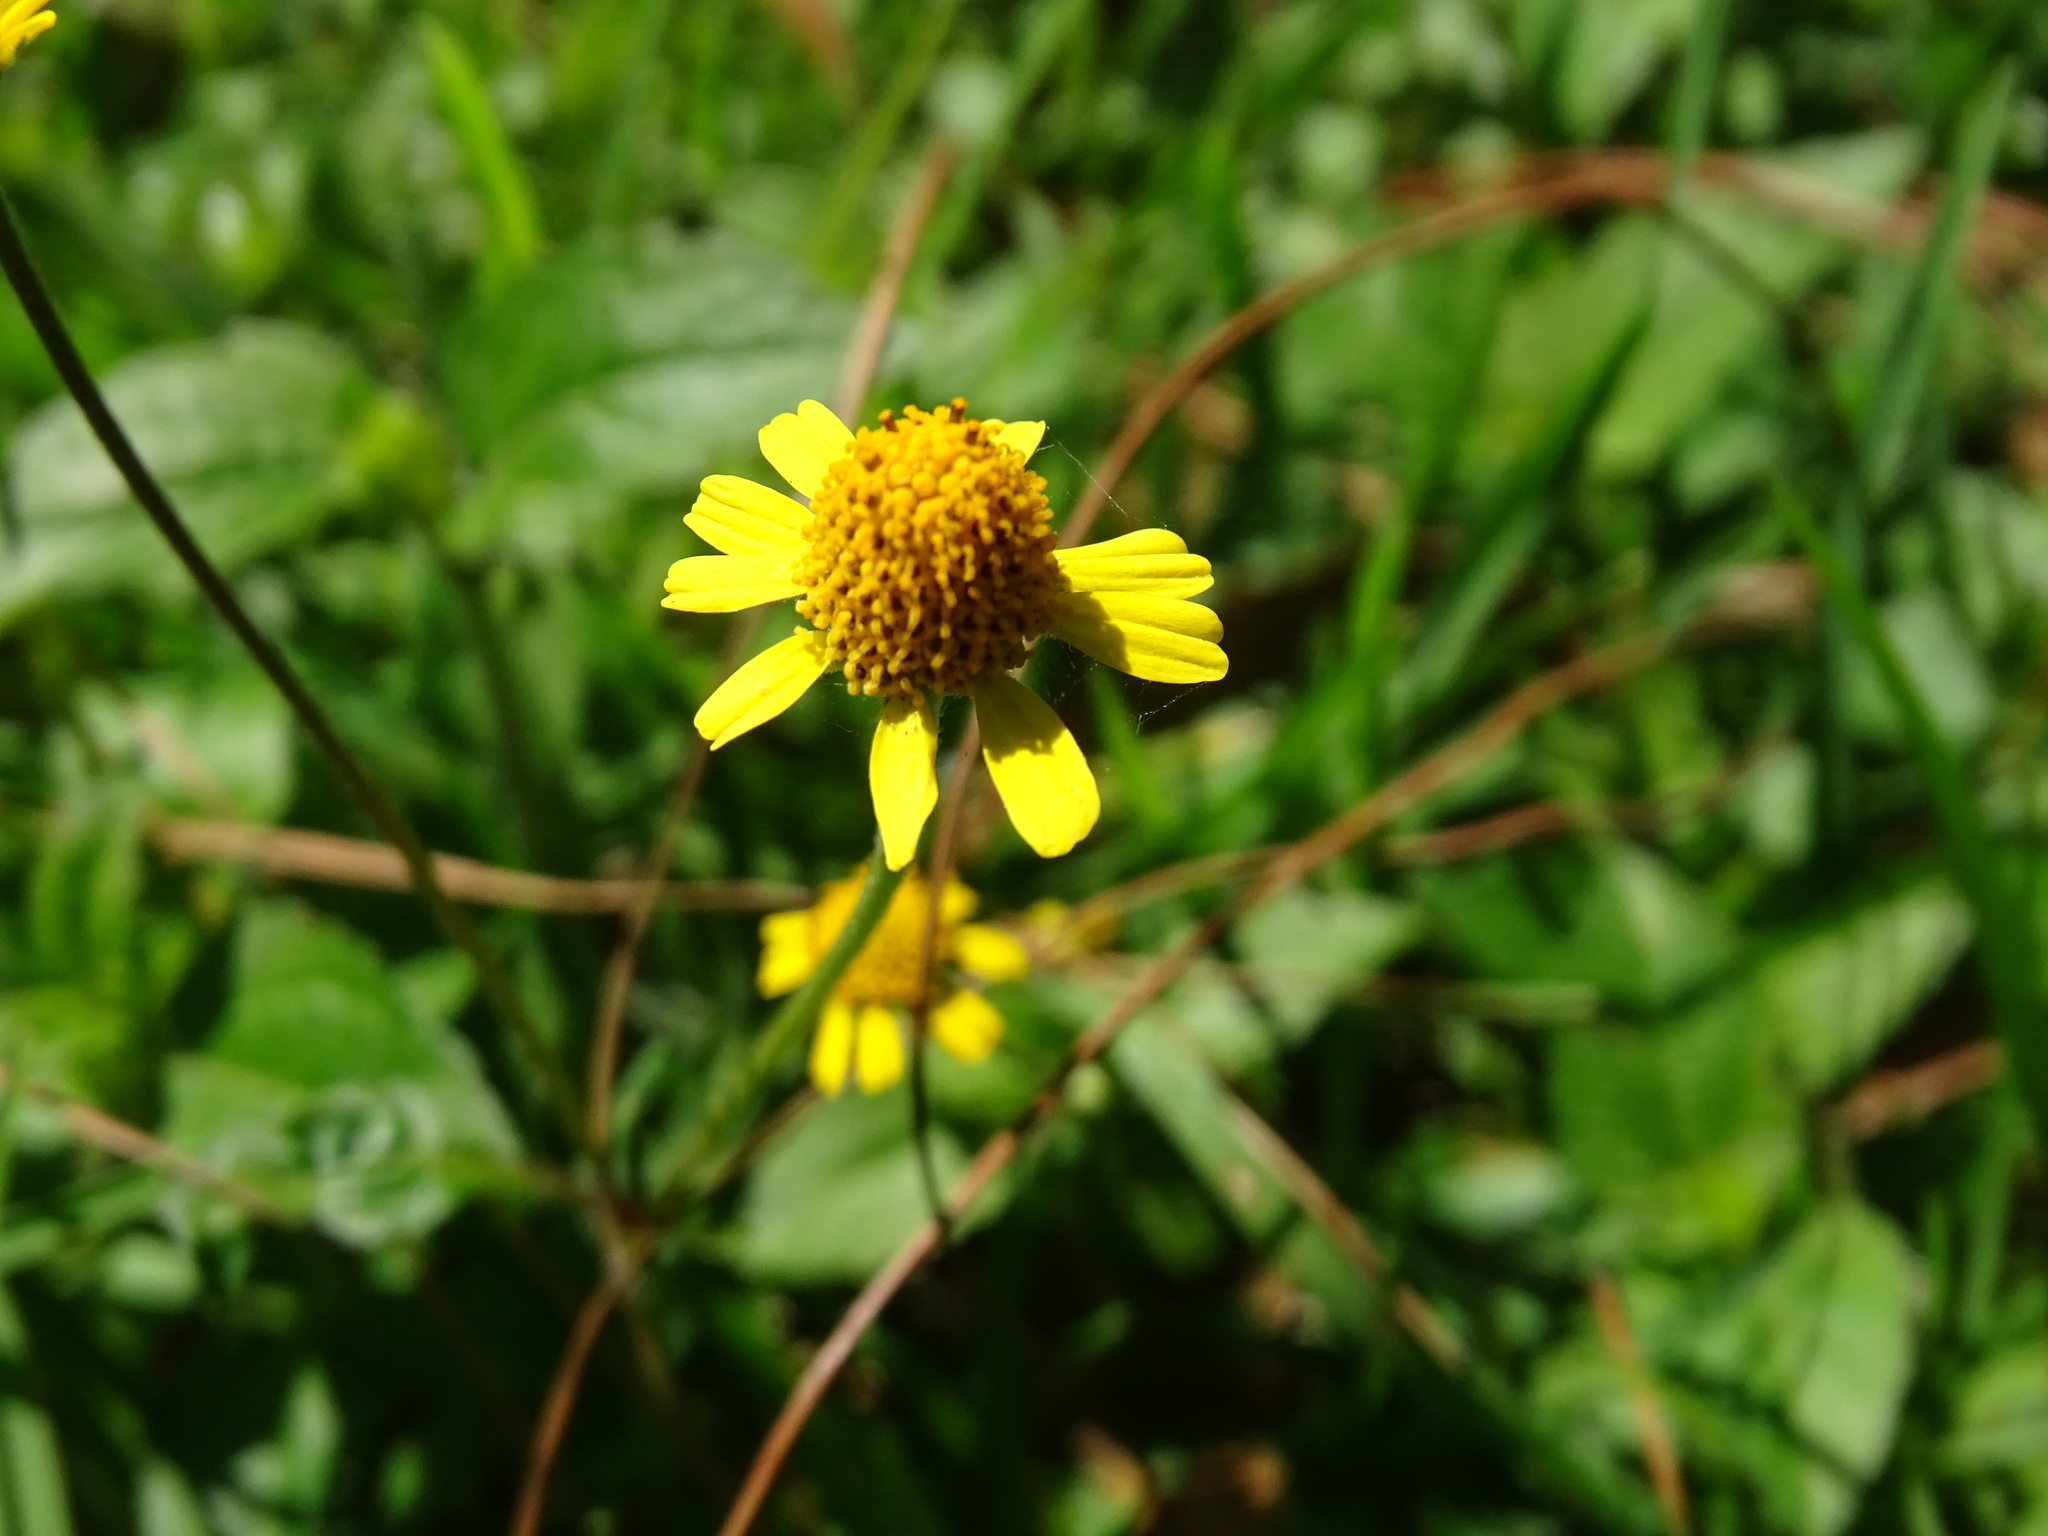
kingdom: Plantae
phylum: Tracheophyta
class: Magnoliopsida
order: Asterales
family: Asteraceae
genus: Acmella
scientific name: Acmella repens
